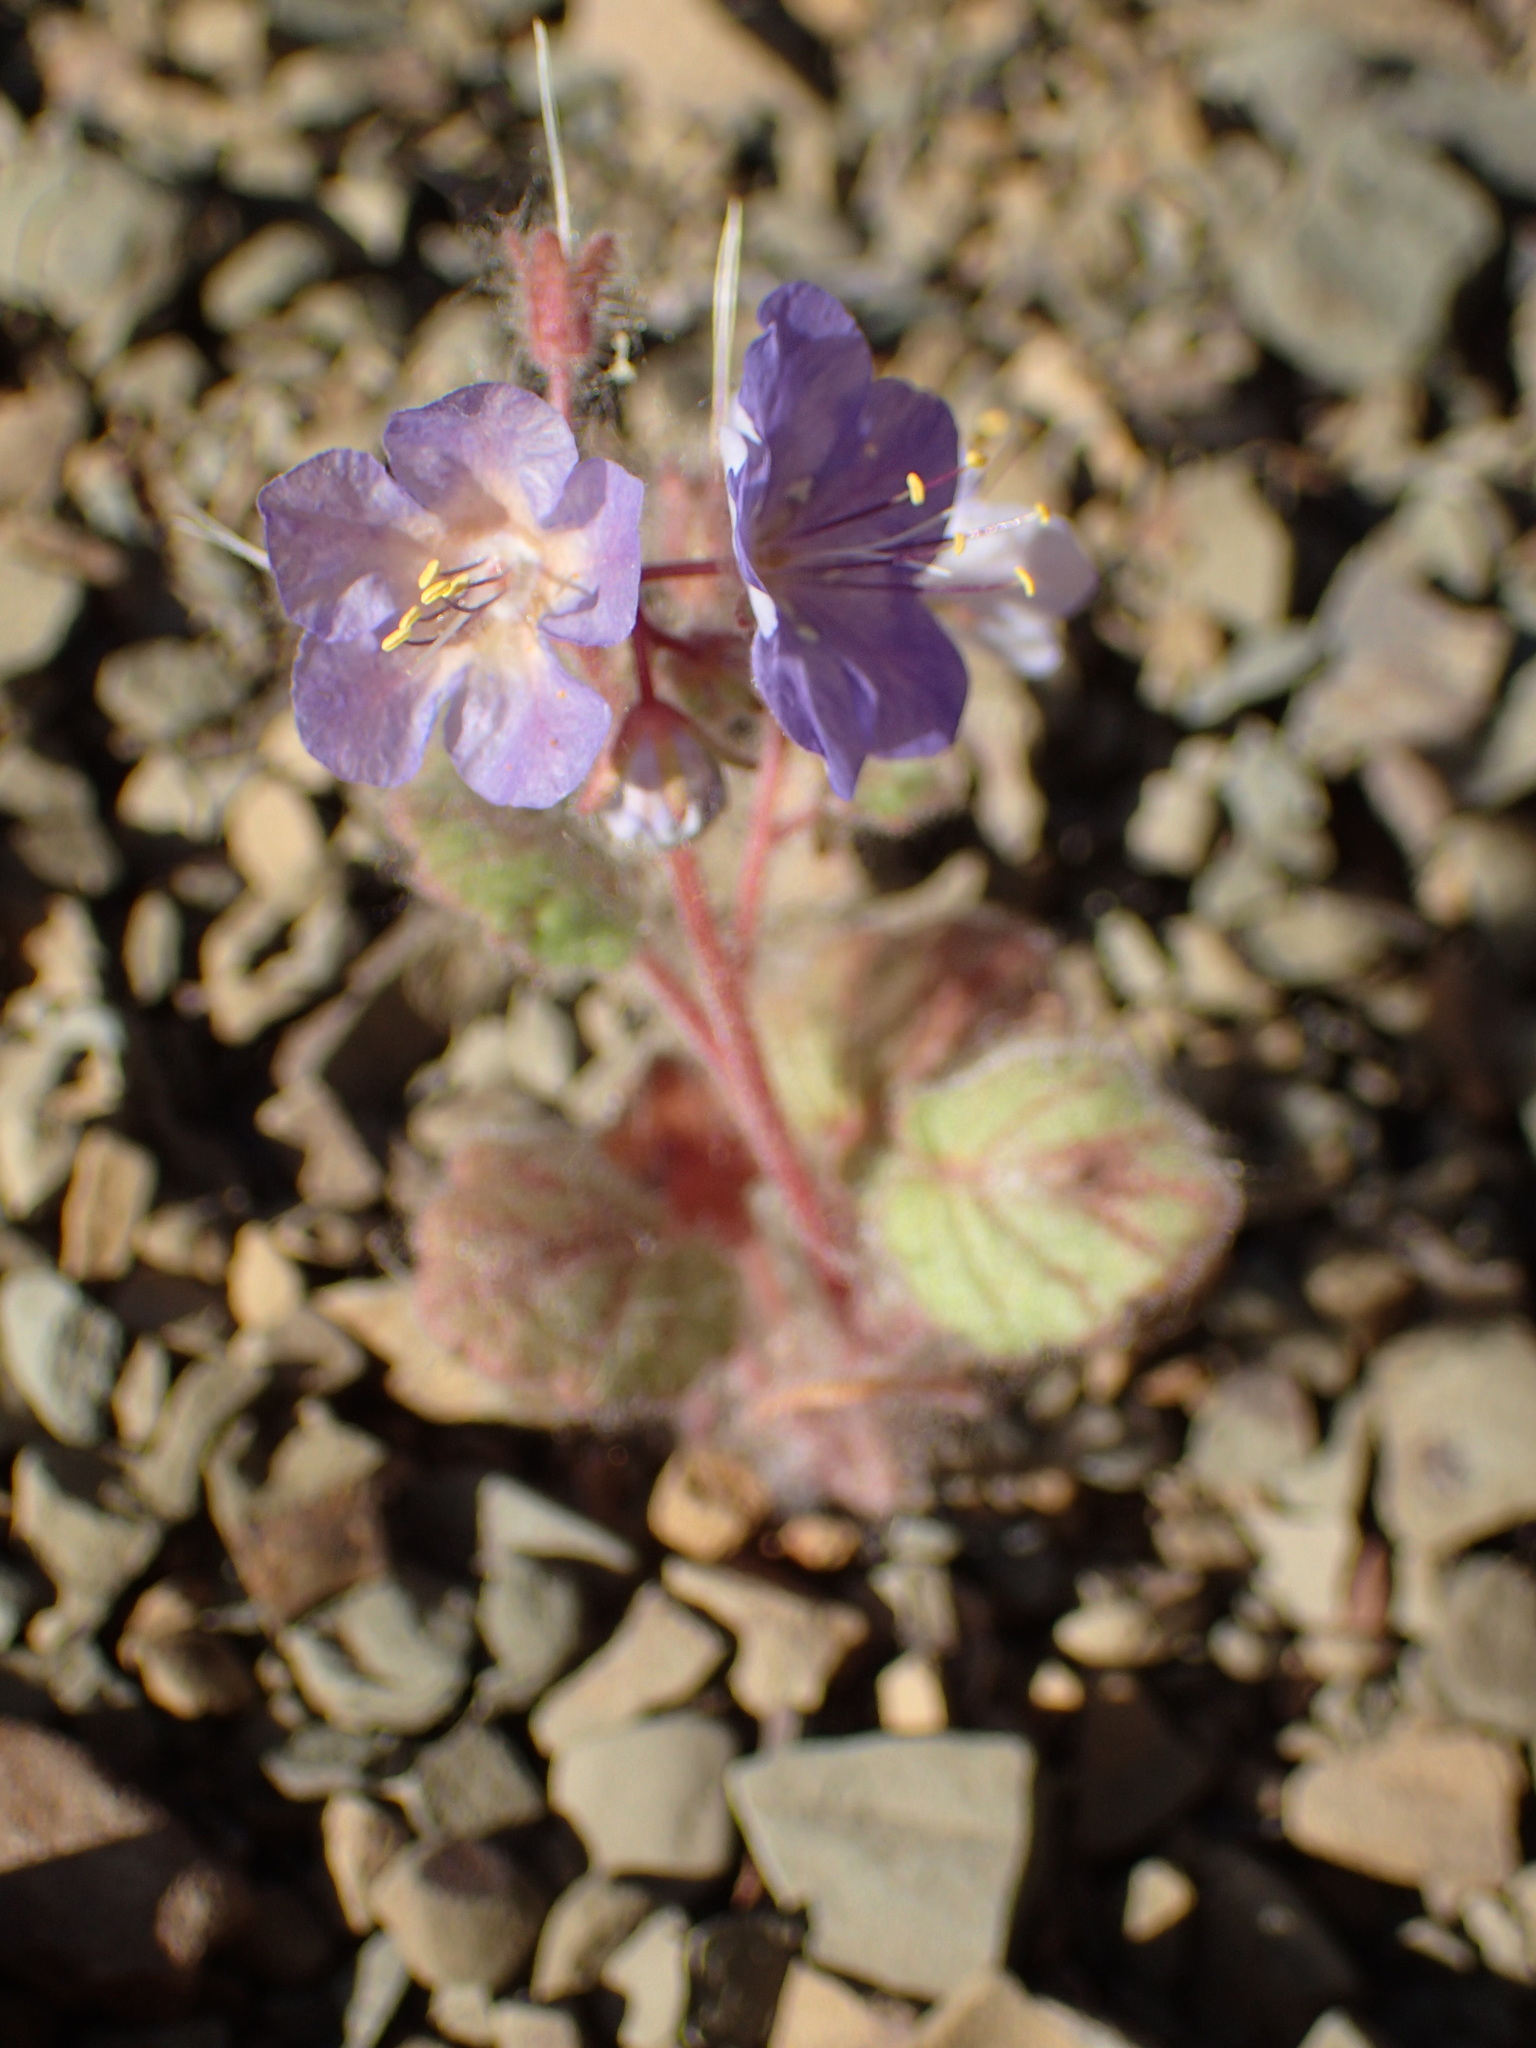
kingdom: Plantae
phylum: Tracheophyta
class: Magnoliopsida
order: Boraginales
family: Hydrophyllaceae
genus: Phacelia
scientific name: Phacelia longipes
